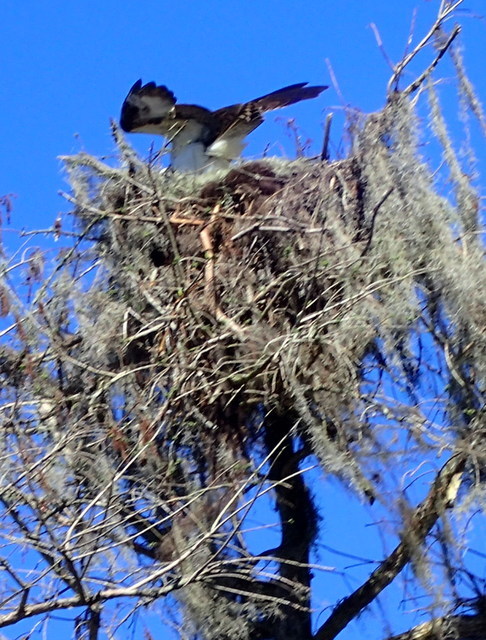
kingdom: Animalia
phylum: Chordata
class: Aves
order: Accipitriformes
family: Pandionidae
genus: Pandion
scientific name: Pandion haliaetus
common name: Osprey
